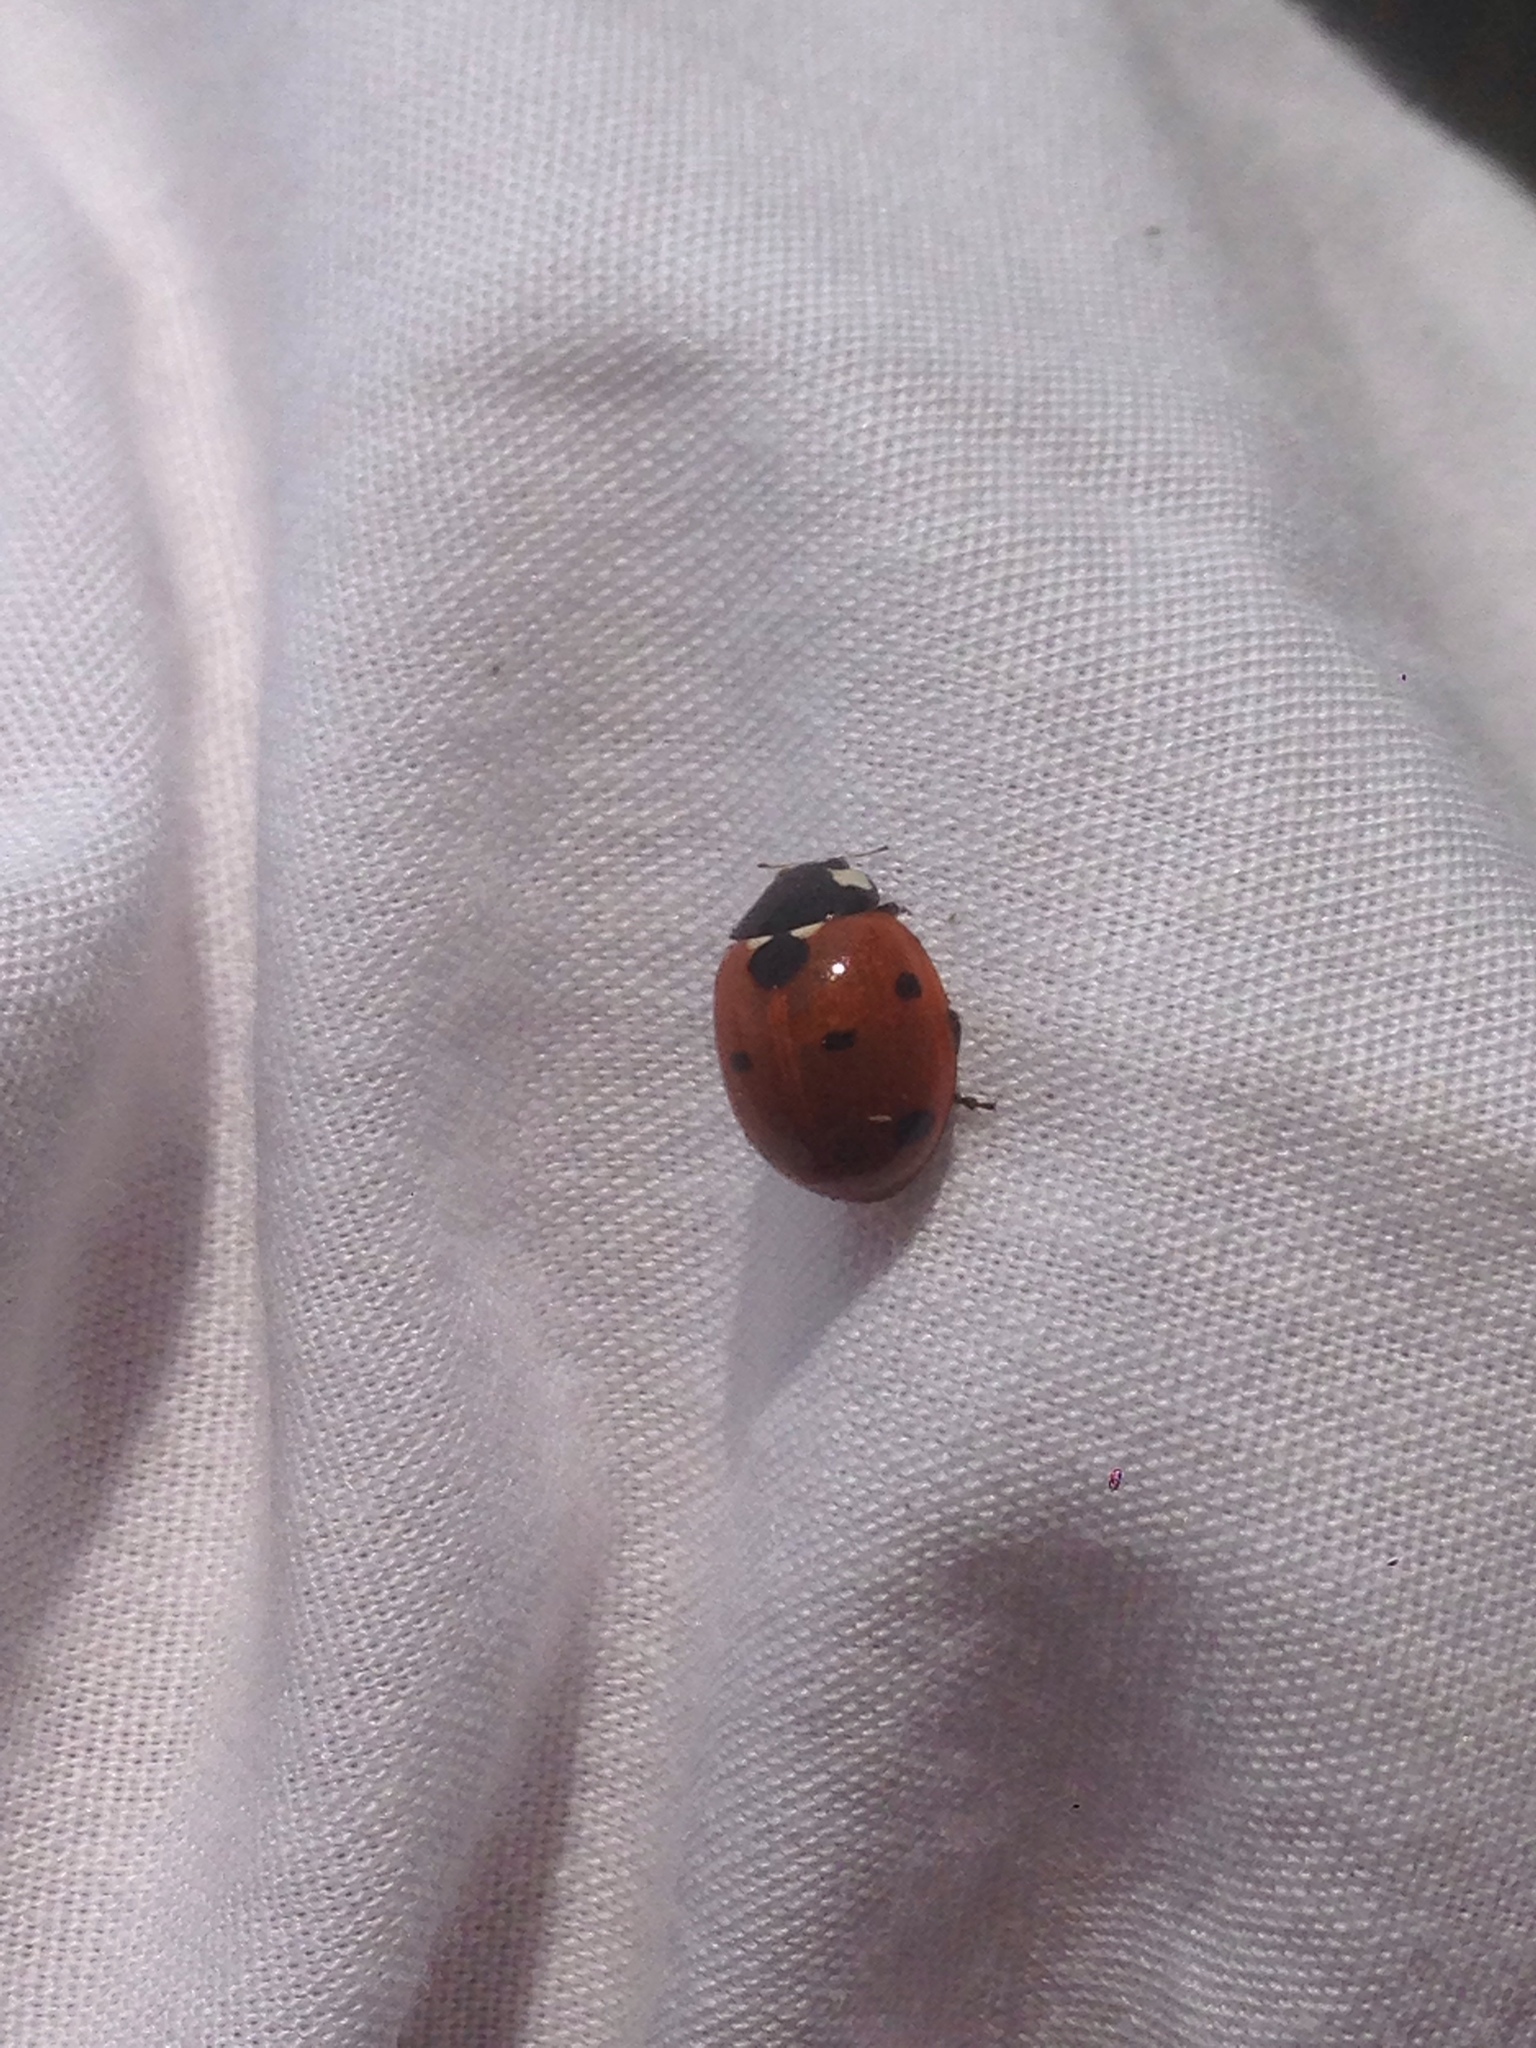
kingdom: Animalia
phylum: Arthropoda
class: Insecta
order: Coleoptera
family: Coccinellidae
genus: Coccinella
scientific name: Coccinella septempunctata
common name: Sevenspotted lady beetle
